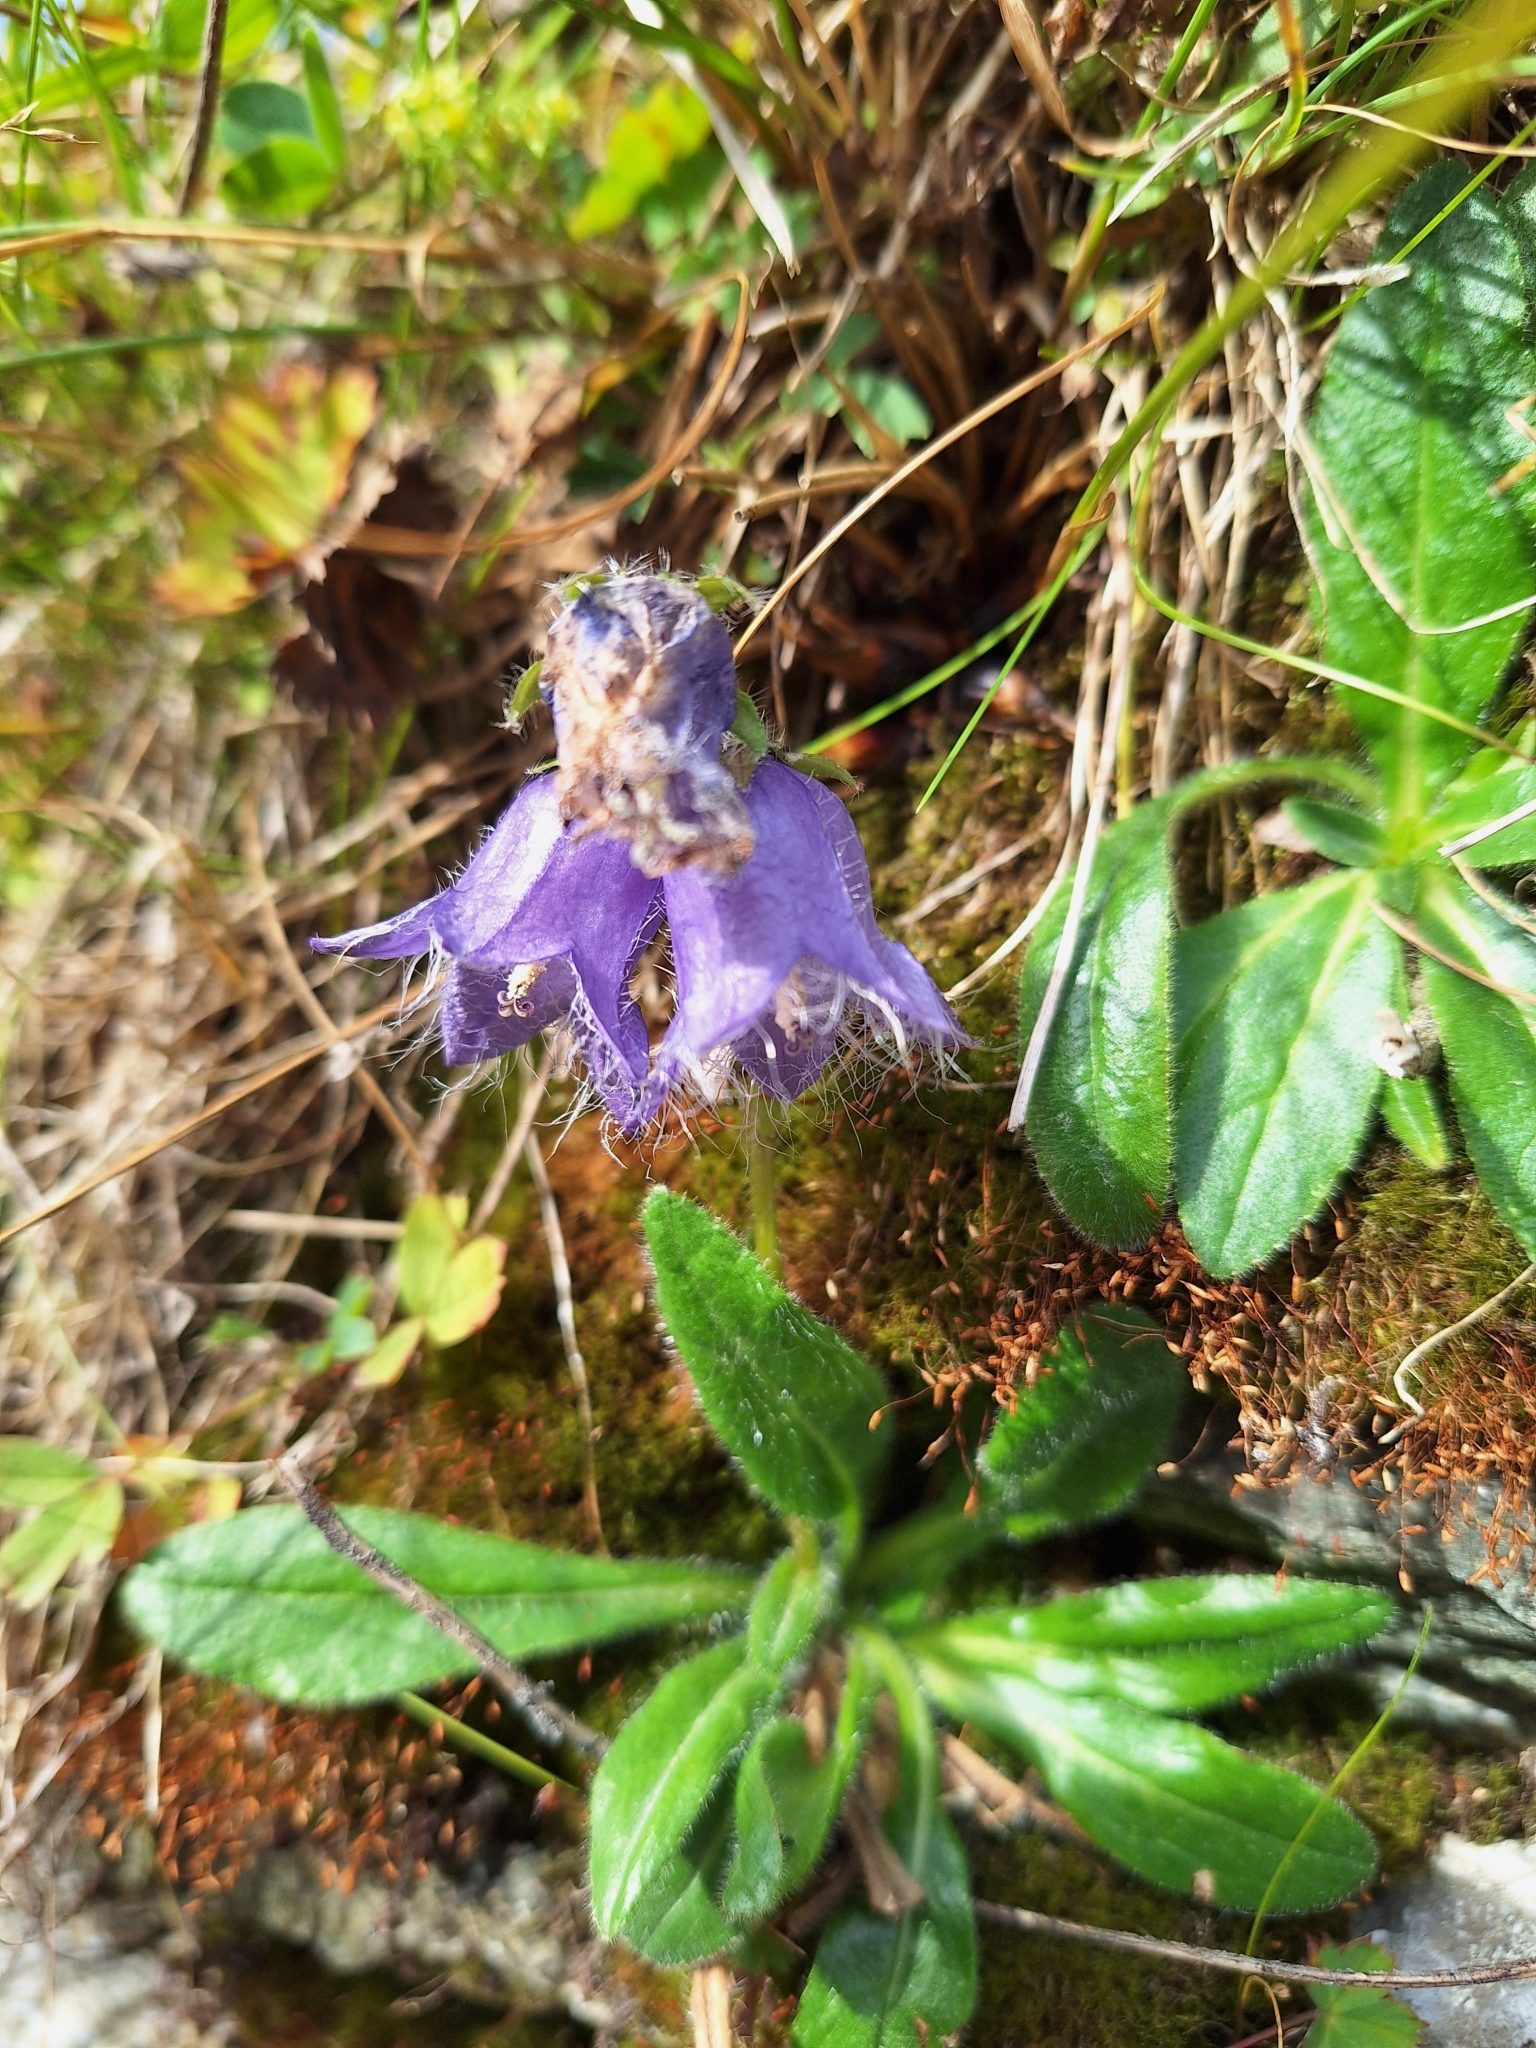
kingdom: Plantae
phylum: Tracheophyta
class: Magnoliopsida
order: Asterales
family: Campanulaceae
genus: Campanula
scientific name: Campanula barbata
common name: Bearded bellflower
